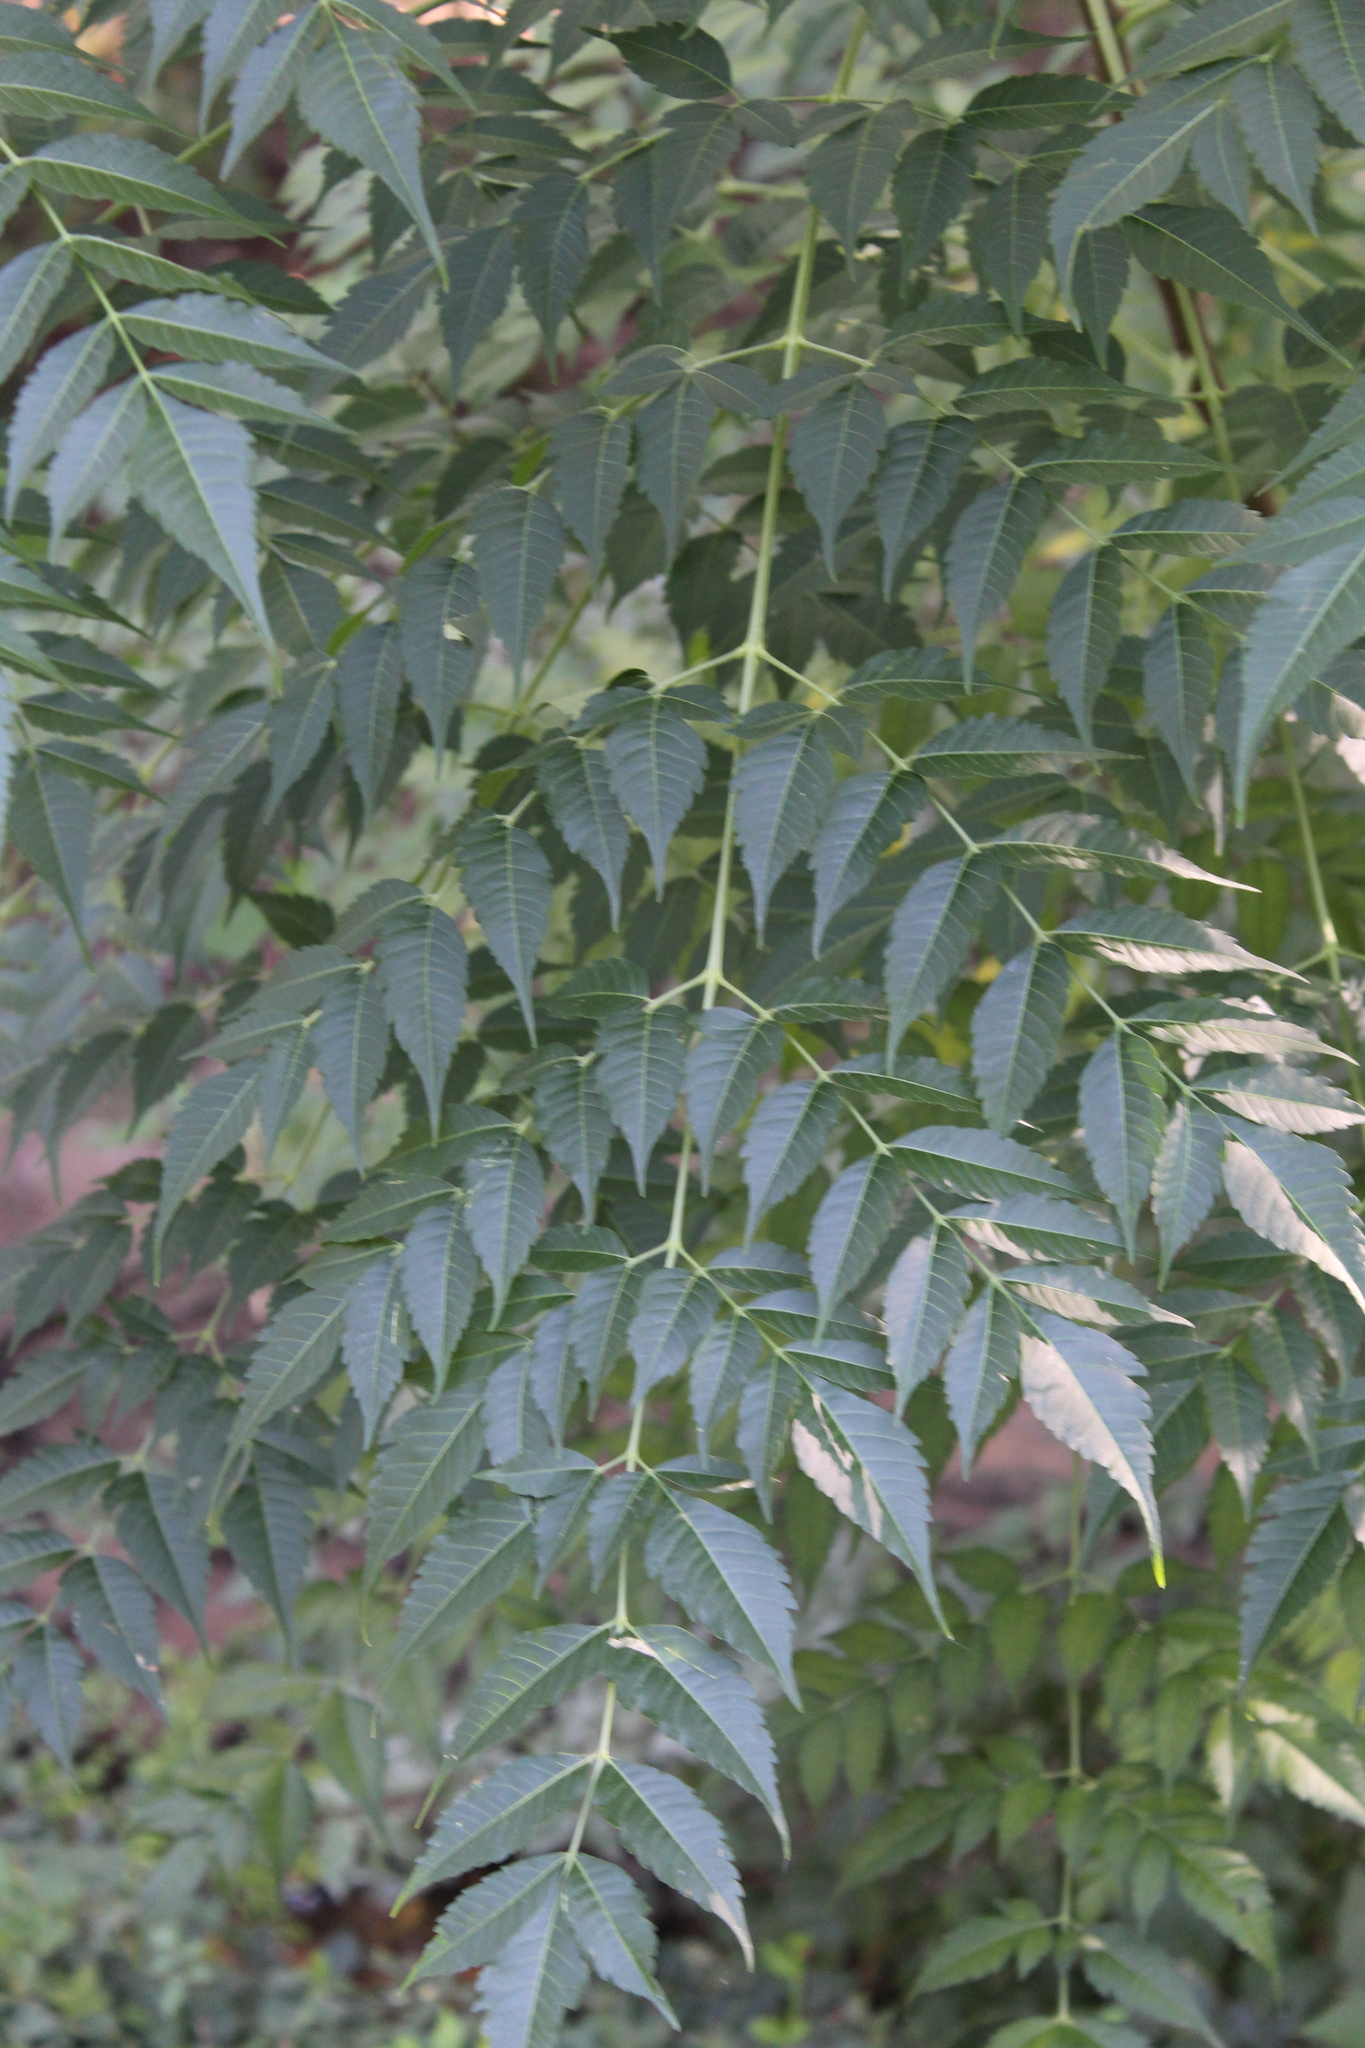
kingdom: Plantae
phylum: Tracheophyta
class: Magnoliopsida
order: Sapindales
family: Meliaceae
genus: Melia
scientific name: Melia azedarach
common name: Chinaberrytree
